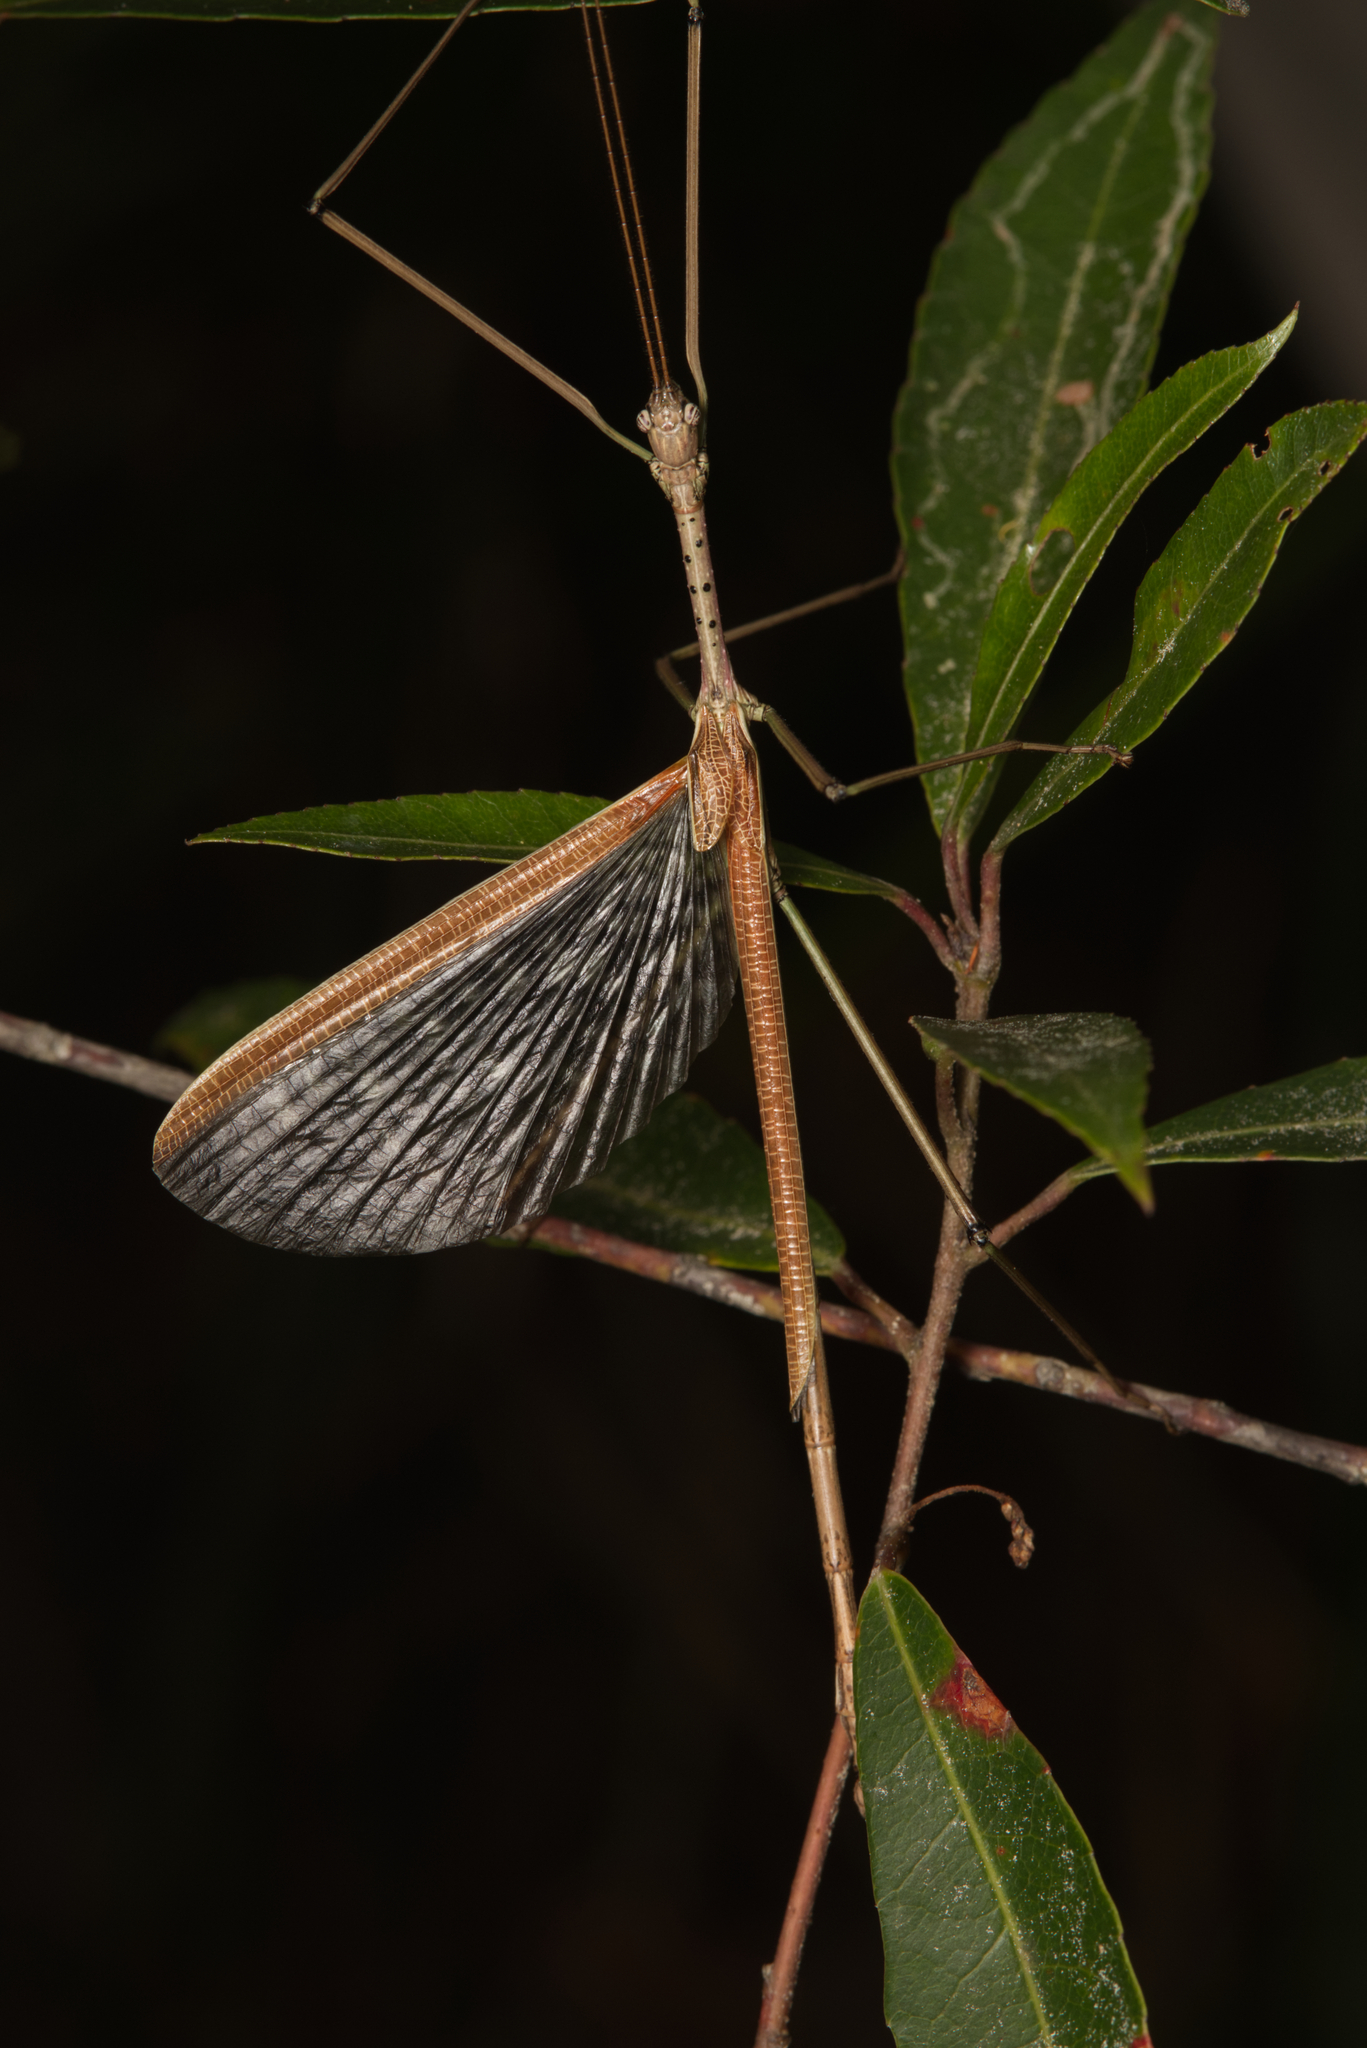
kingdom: Animalia
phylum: Arthropoda
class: Insecta
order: Phasmida
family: Phasmatidae
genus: Anchiale
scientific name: Anchiale austrotessulata
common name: Tessellated stick-insect
